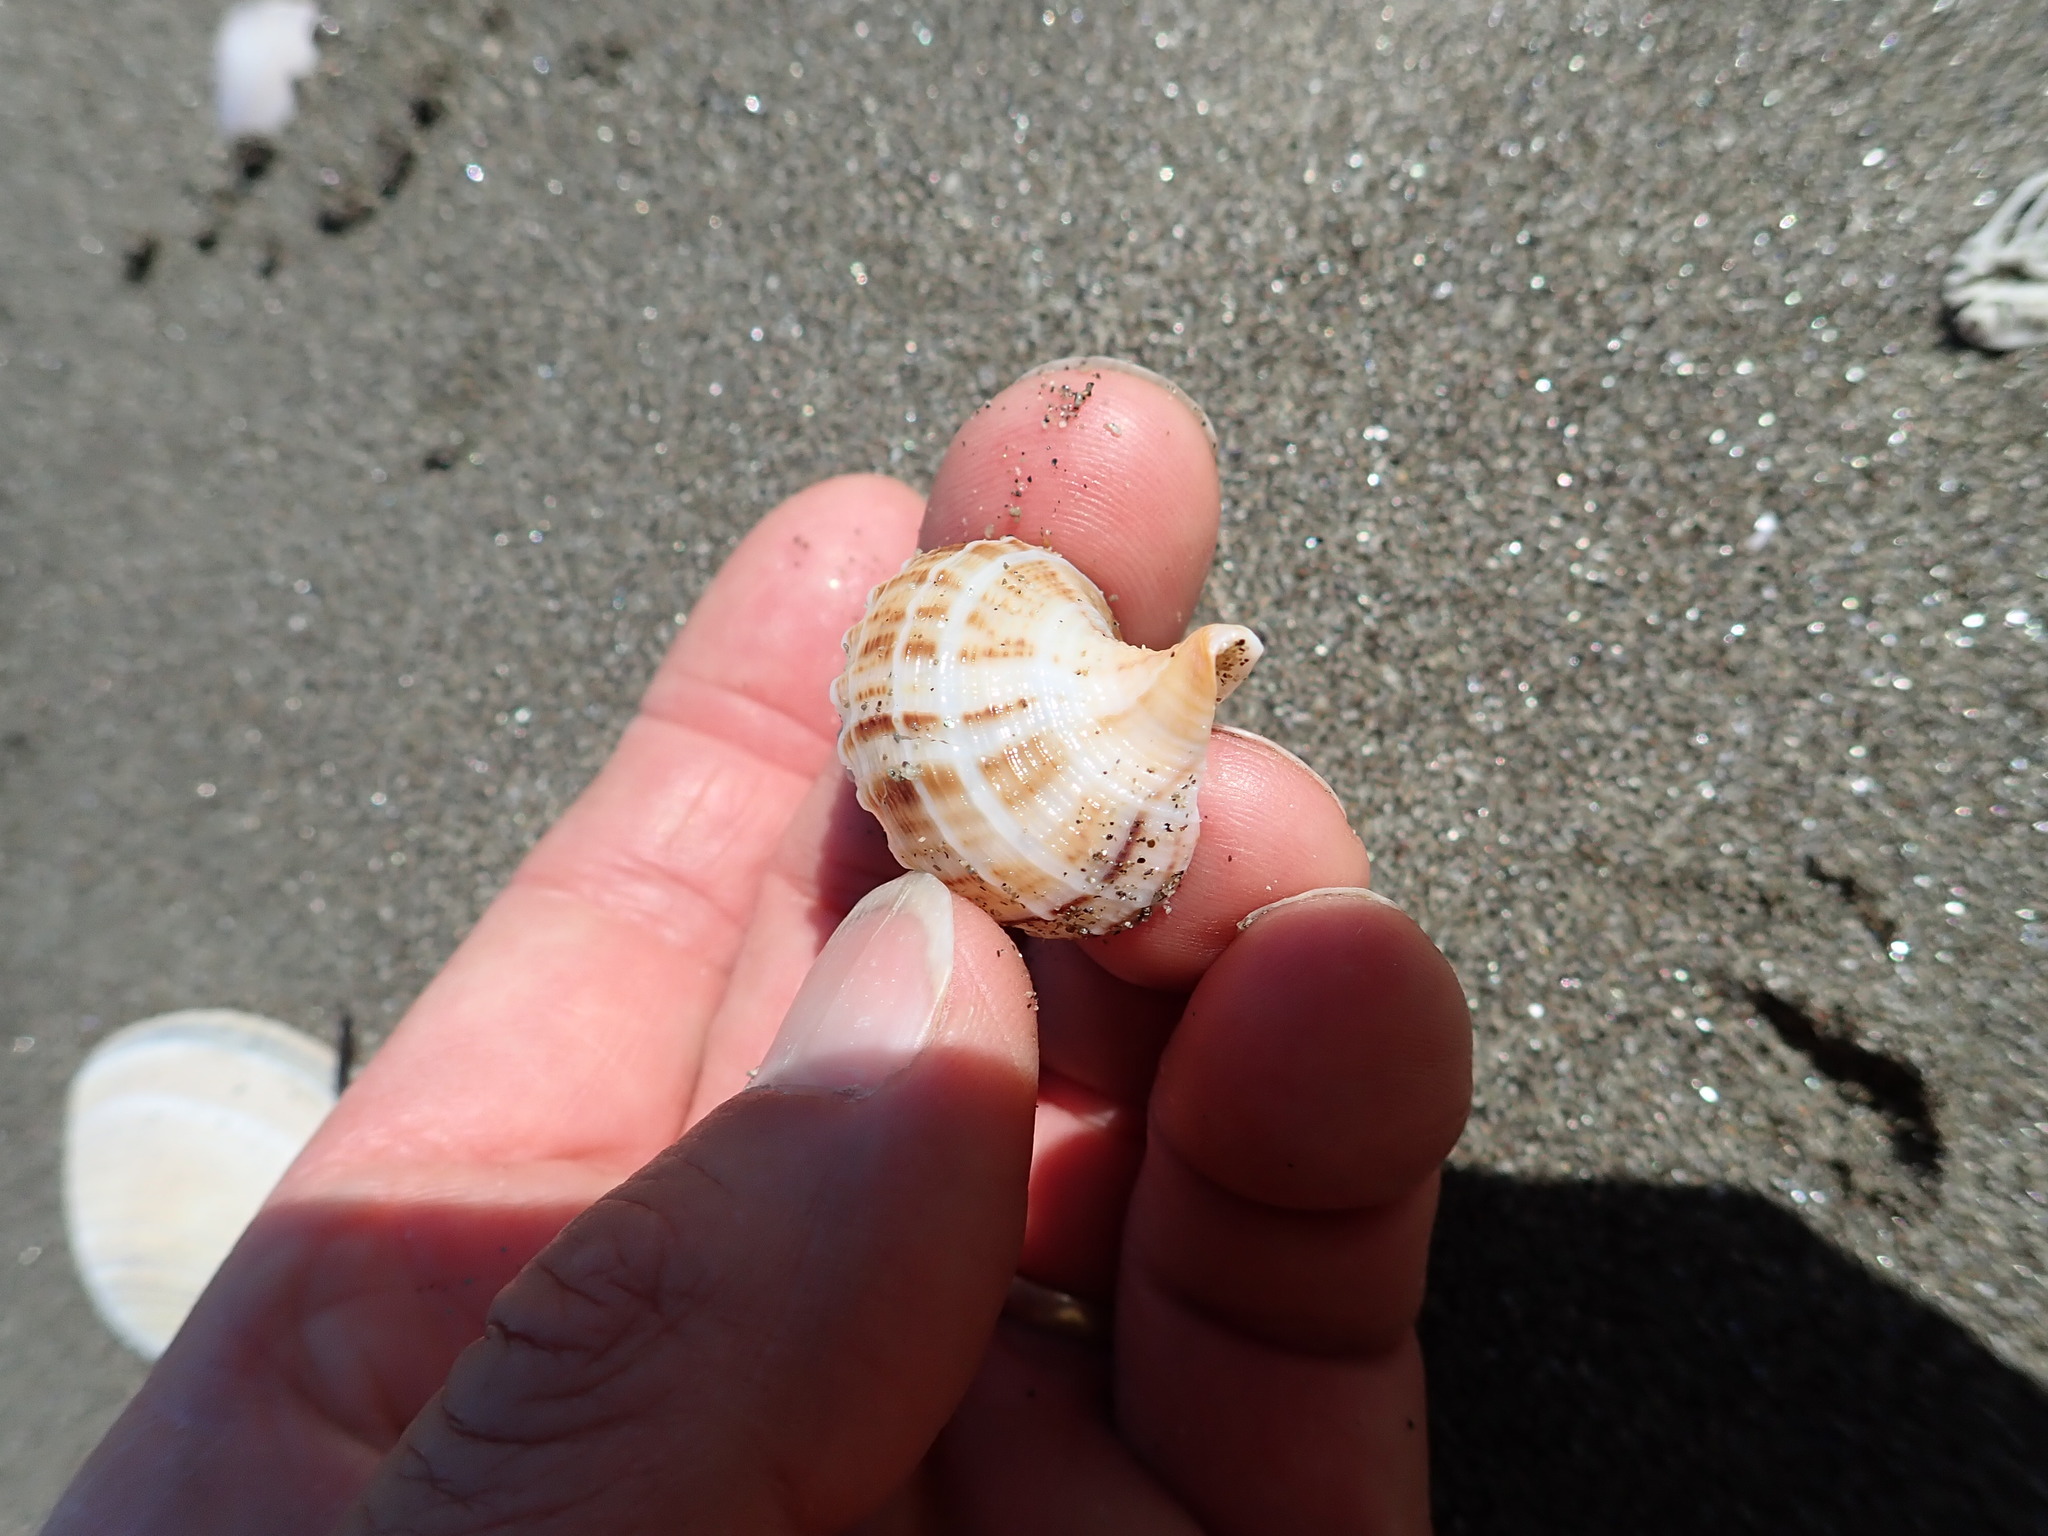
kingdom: Animalia
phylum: Mollusca
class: Gastropoda
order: Neogastropoda
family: Prosiphonidae
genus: Austrofusus
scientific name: Austrofusus glans
